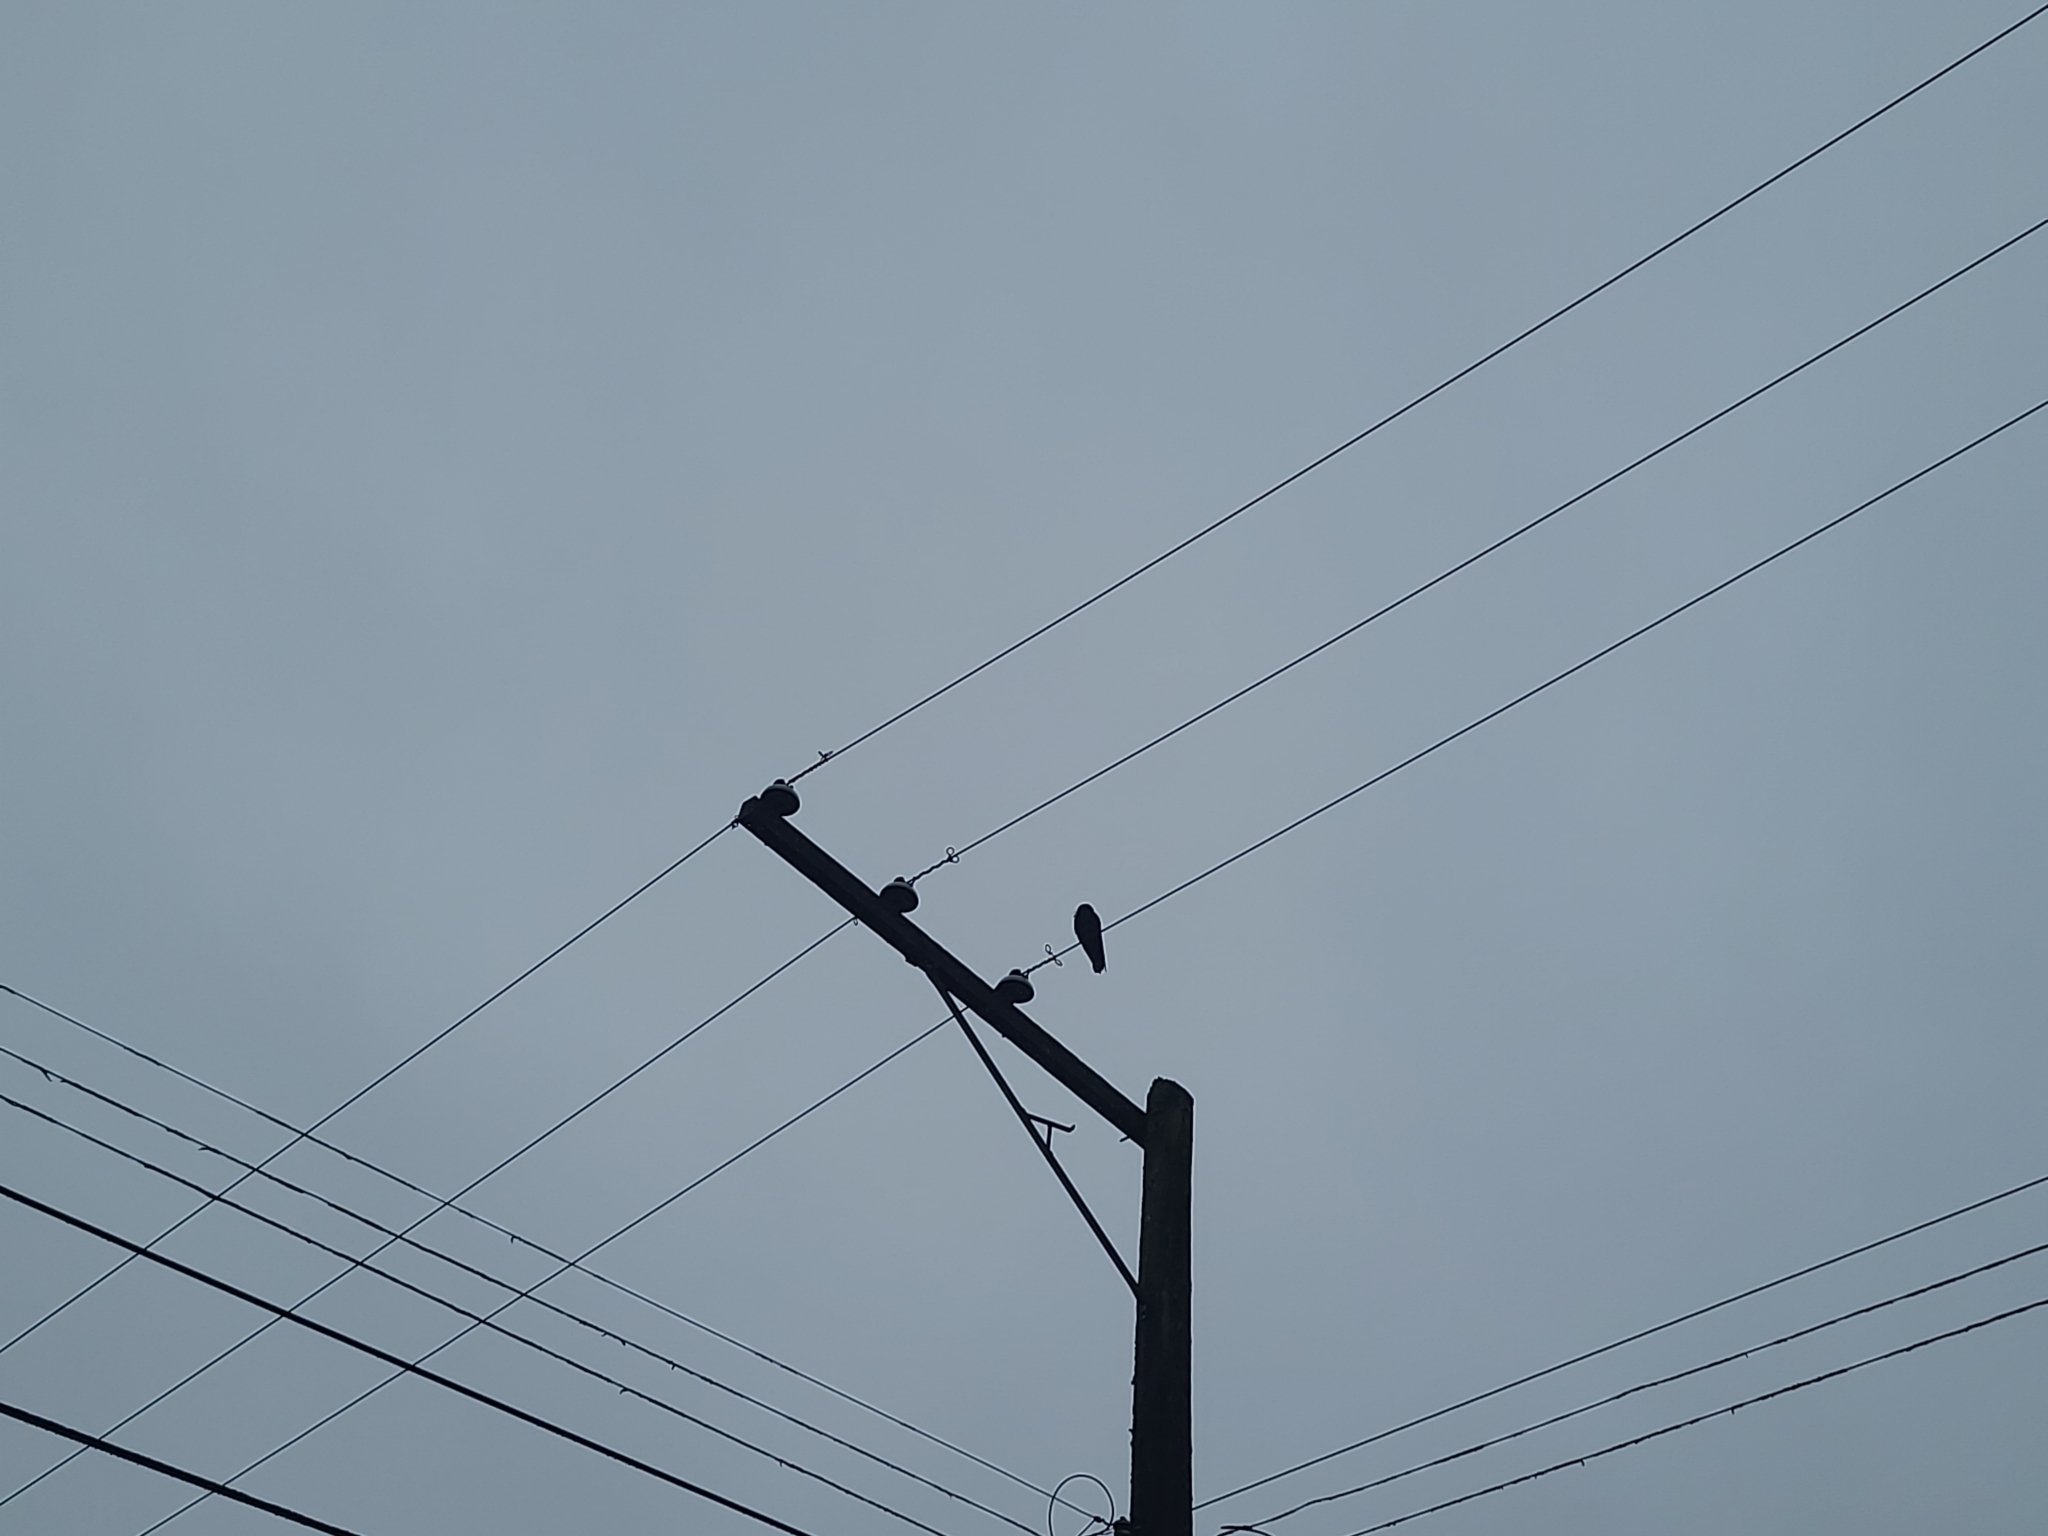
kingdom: Animalia
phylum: Chordata
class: Aves
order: Passeriformes
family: Corvidae
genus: Corvus
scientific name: Corvus brachyrhynchos
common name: American crow
